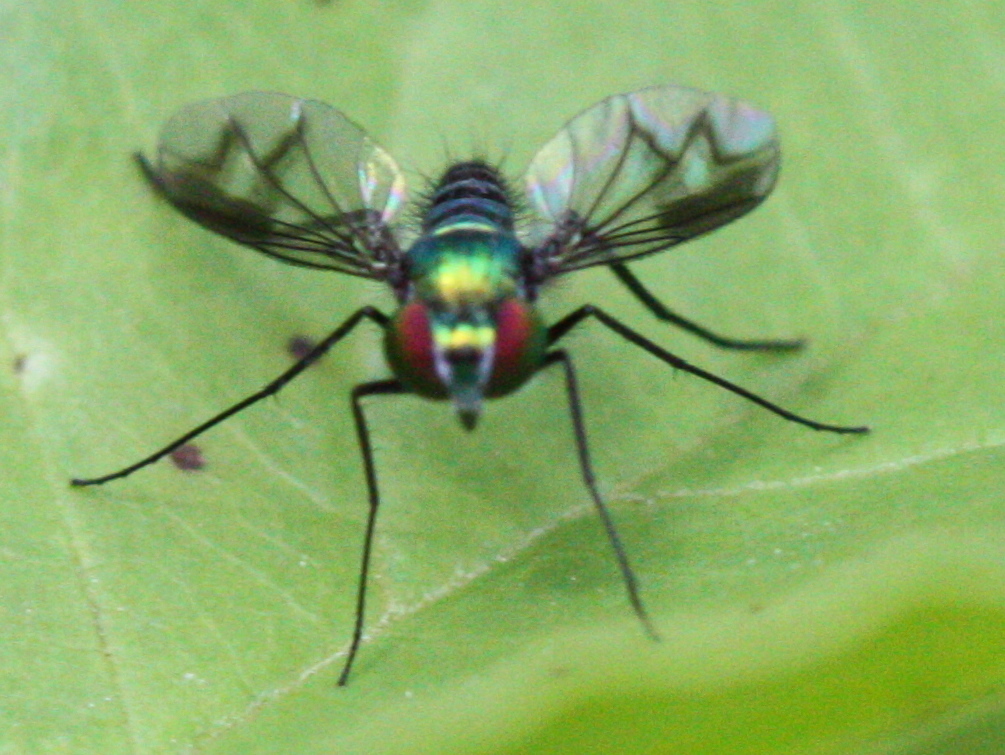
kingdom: Animalia
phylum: Arthropoda
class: Insecta
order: Diptera
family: Dolichopodidae
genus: Condylostylus
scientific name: Condylostylus patibulatus
